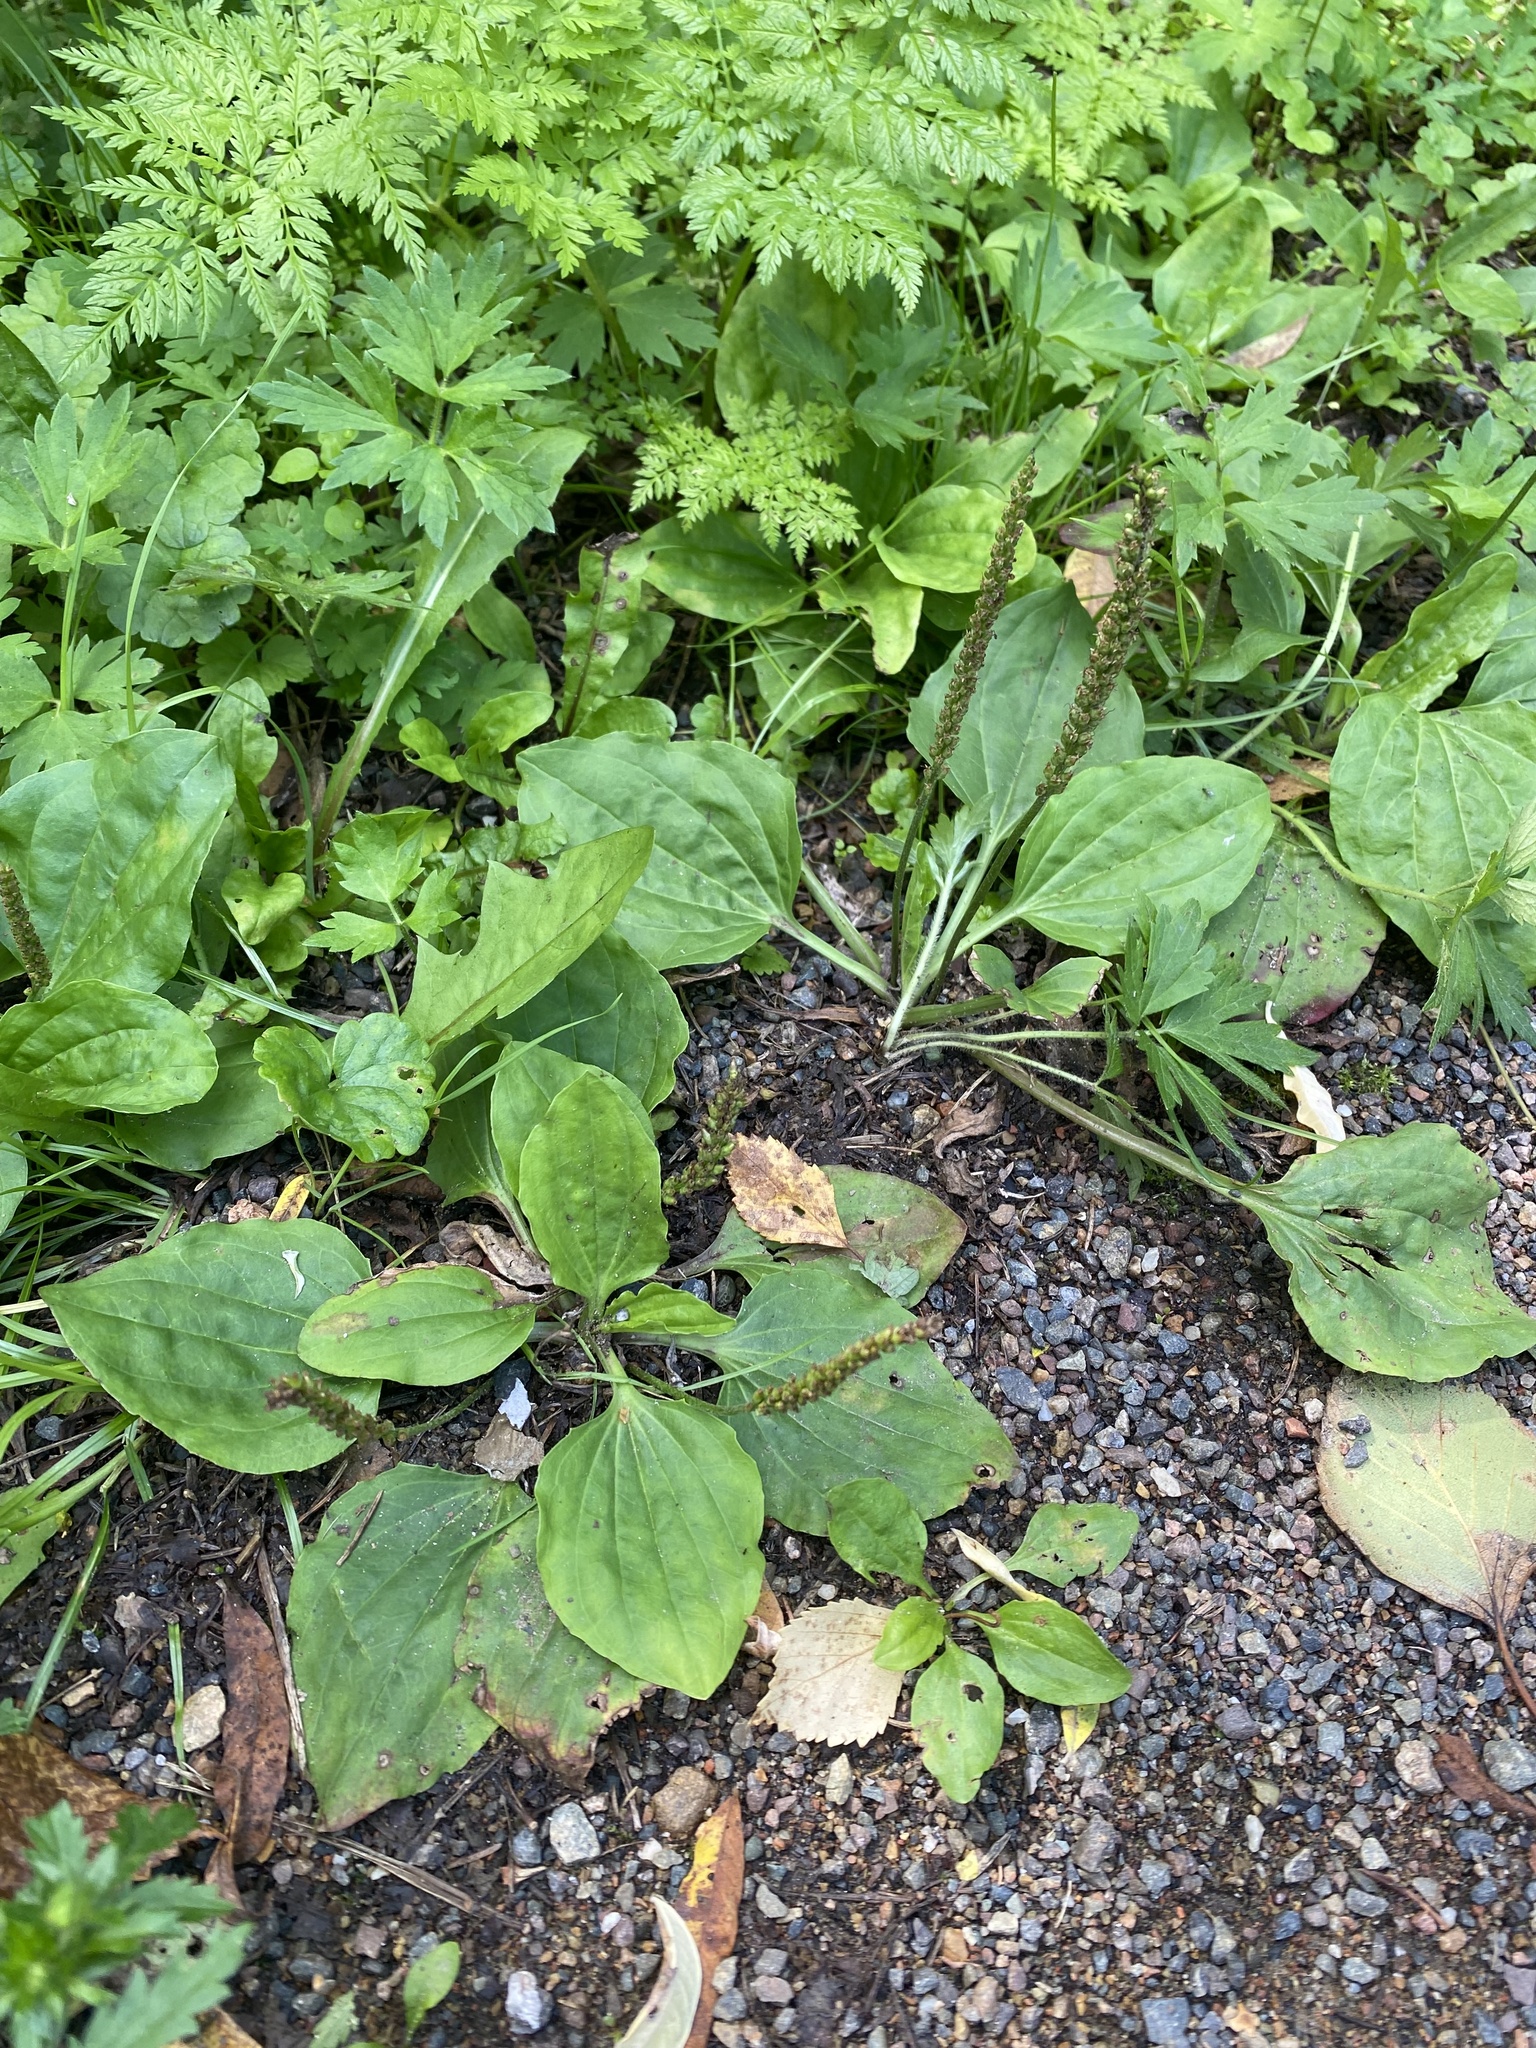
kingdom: Plantae
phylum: Tracheophyta
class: Magnoliopsida
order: Lamiales
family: Plantaginaceae
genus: Plantago
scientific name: Plantago major
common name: Common plantain
